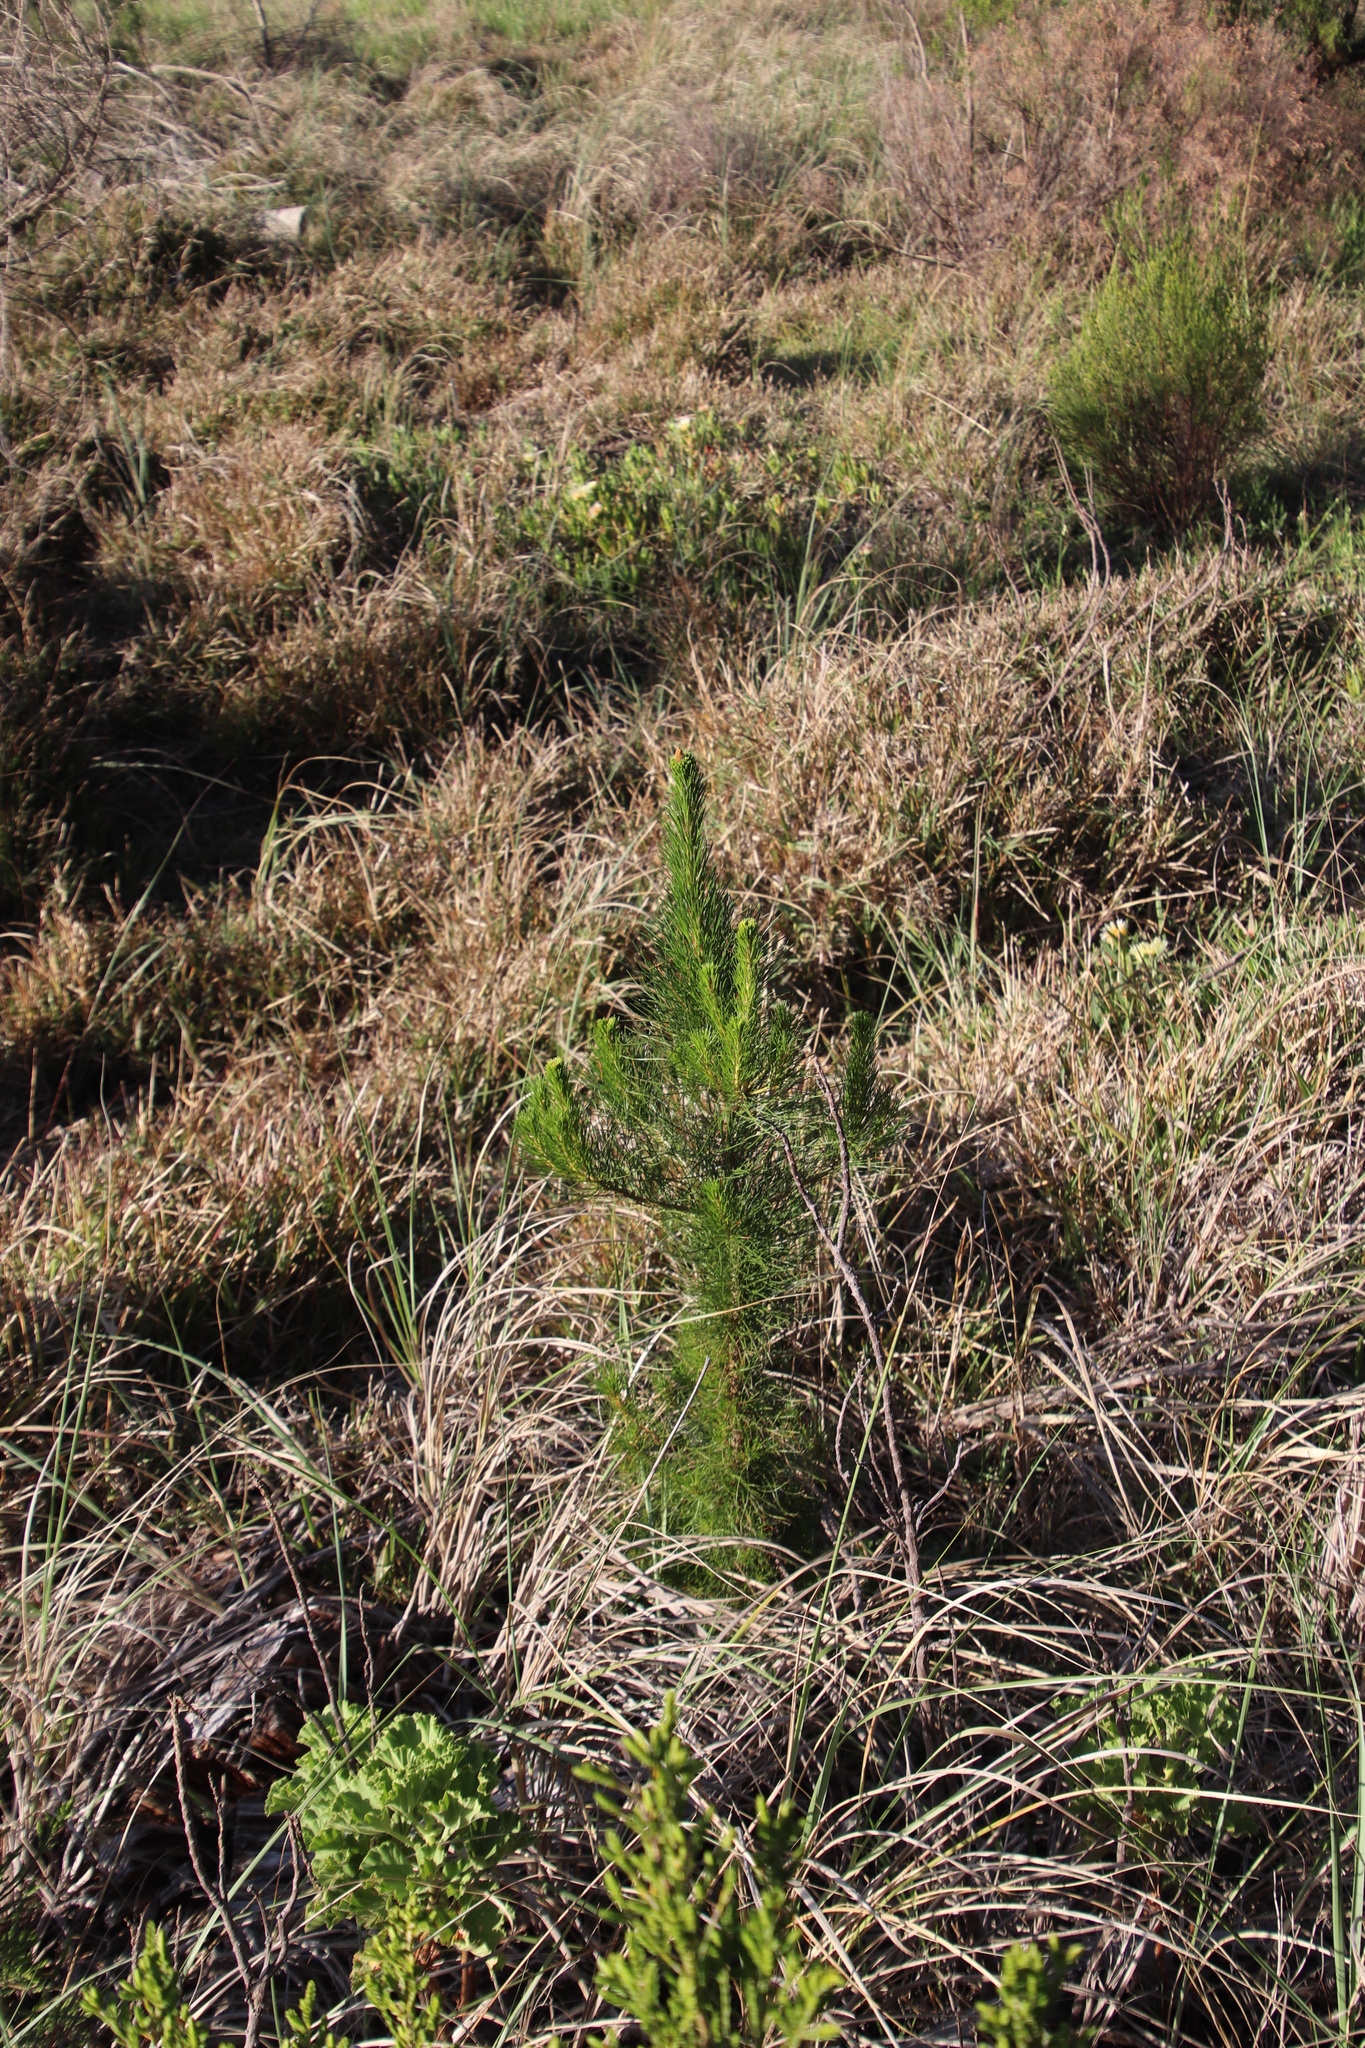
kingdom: Plantae
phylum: Tracheophyta
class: Pinopsida
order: Pinales
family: Pinaceae
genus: Pinus
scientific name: Pinus radiata
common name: Monterey pine
